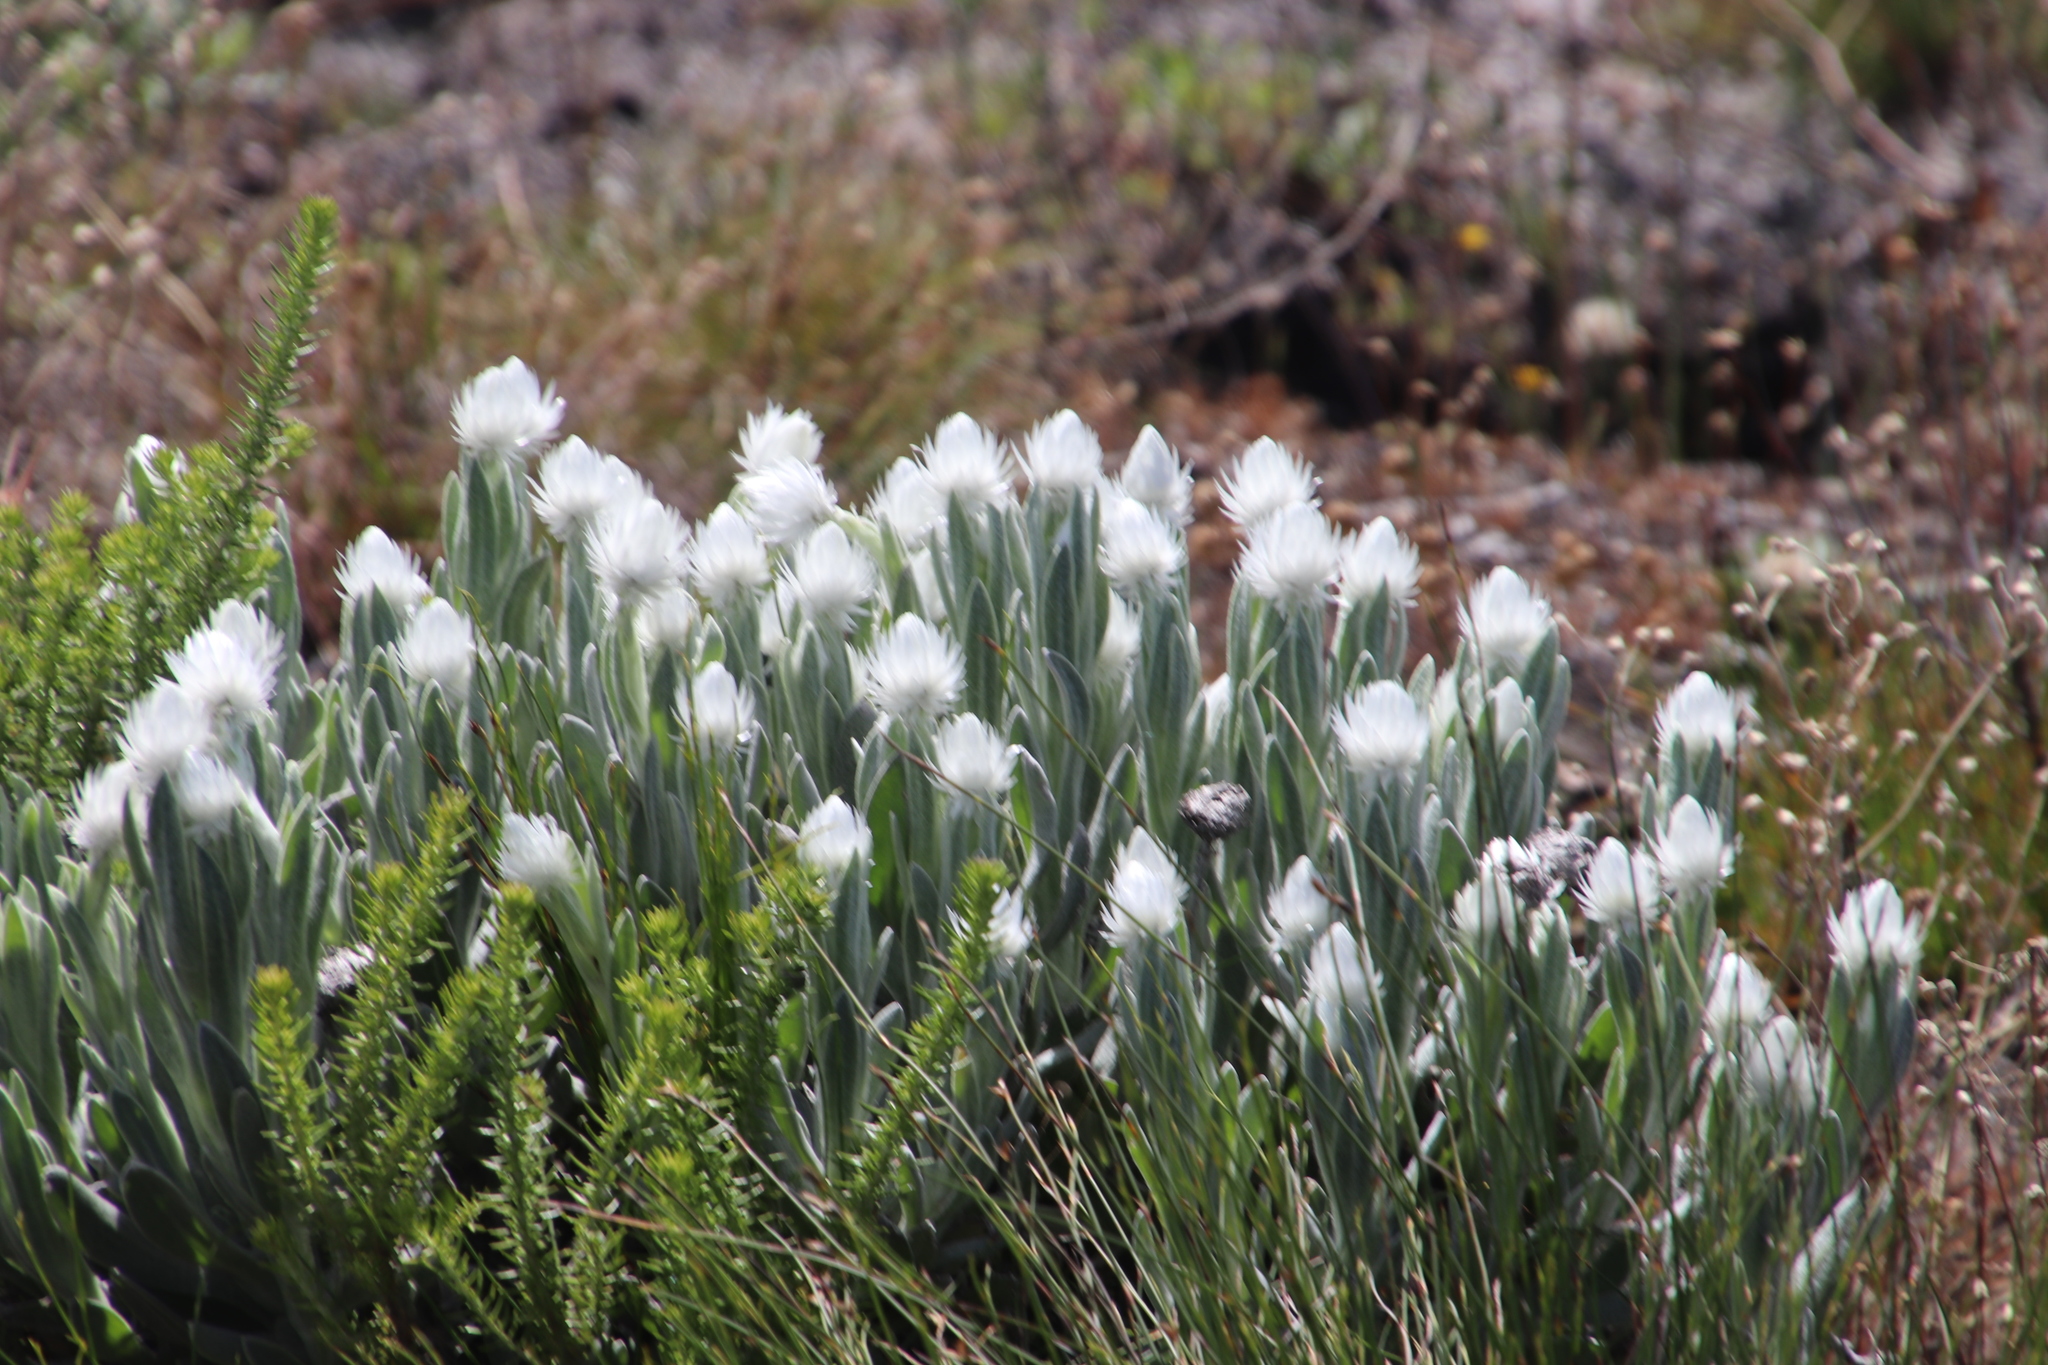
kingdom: Plantae
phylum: Tracheophyta
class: Magnoliopsida
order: Asterales
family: Asteraceae
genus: Syncarpha
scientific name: Syncarpha vestita
